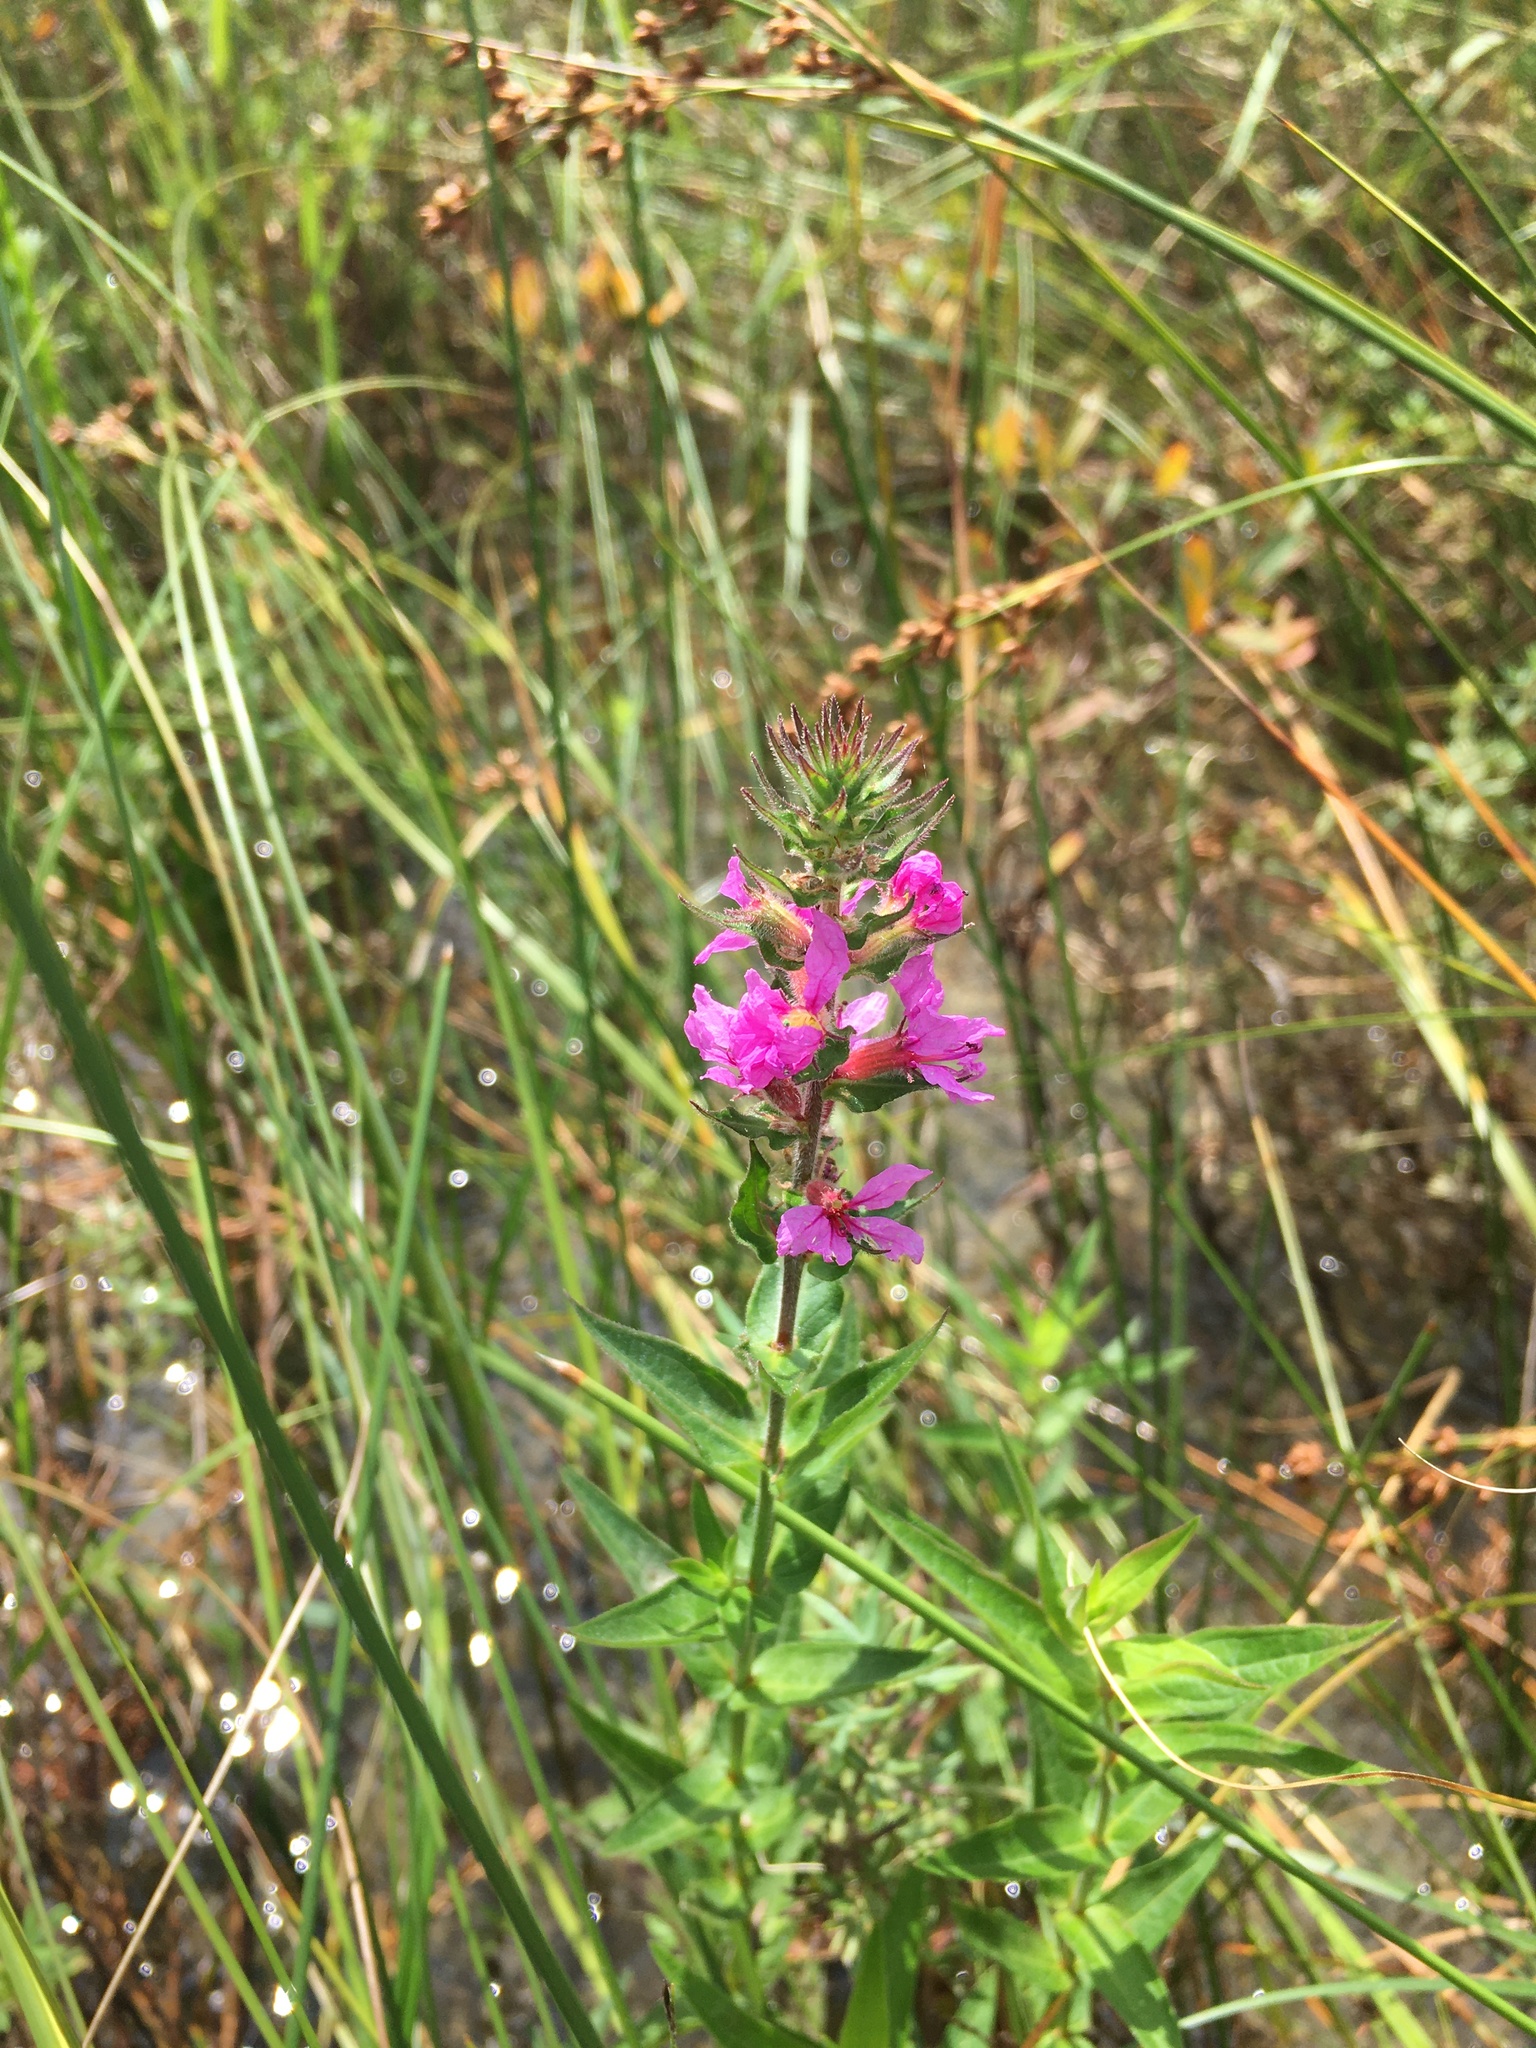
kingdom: Plantae
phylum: Tracheophyta
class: Magnoliopsida
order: Myrtales
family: Lythraceae
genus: Lythrum
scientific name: Lythrum salicaria
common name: Purple loosestrife
